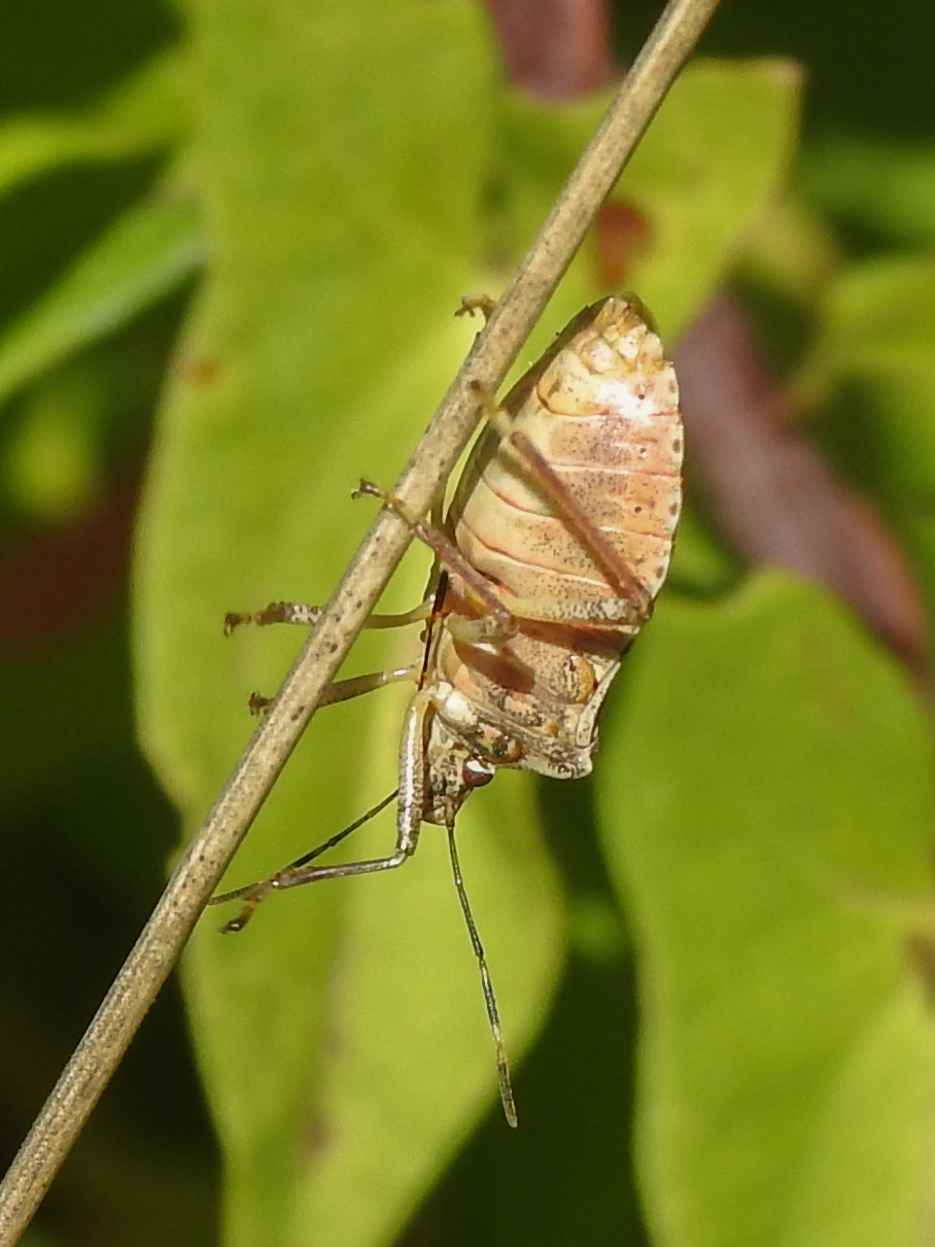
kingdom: Animalia
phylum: Arthropoda
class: Insecta
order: Hemiptera
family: Pentatomidae
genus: Halyomorpha
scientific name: Halyomorpha halys
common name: Brown marmorated stink bug
